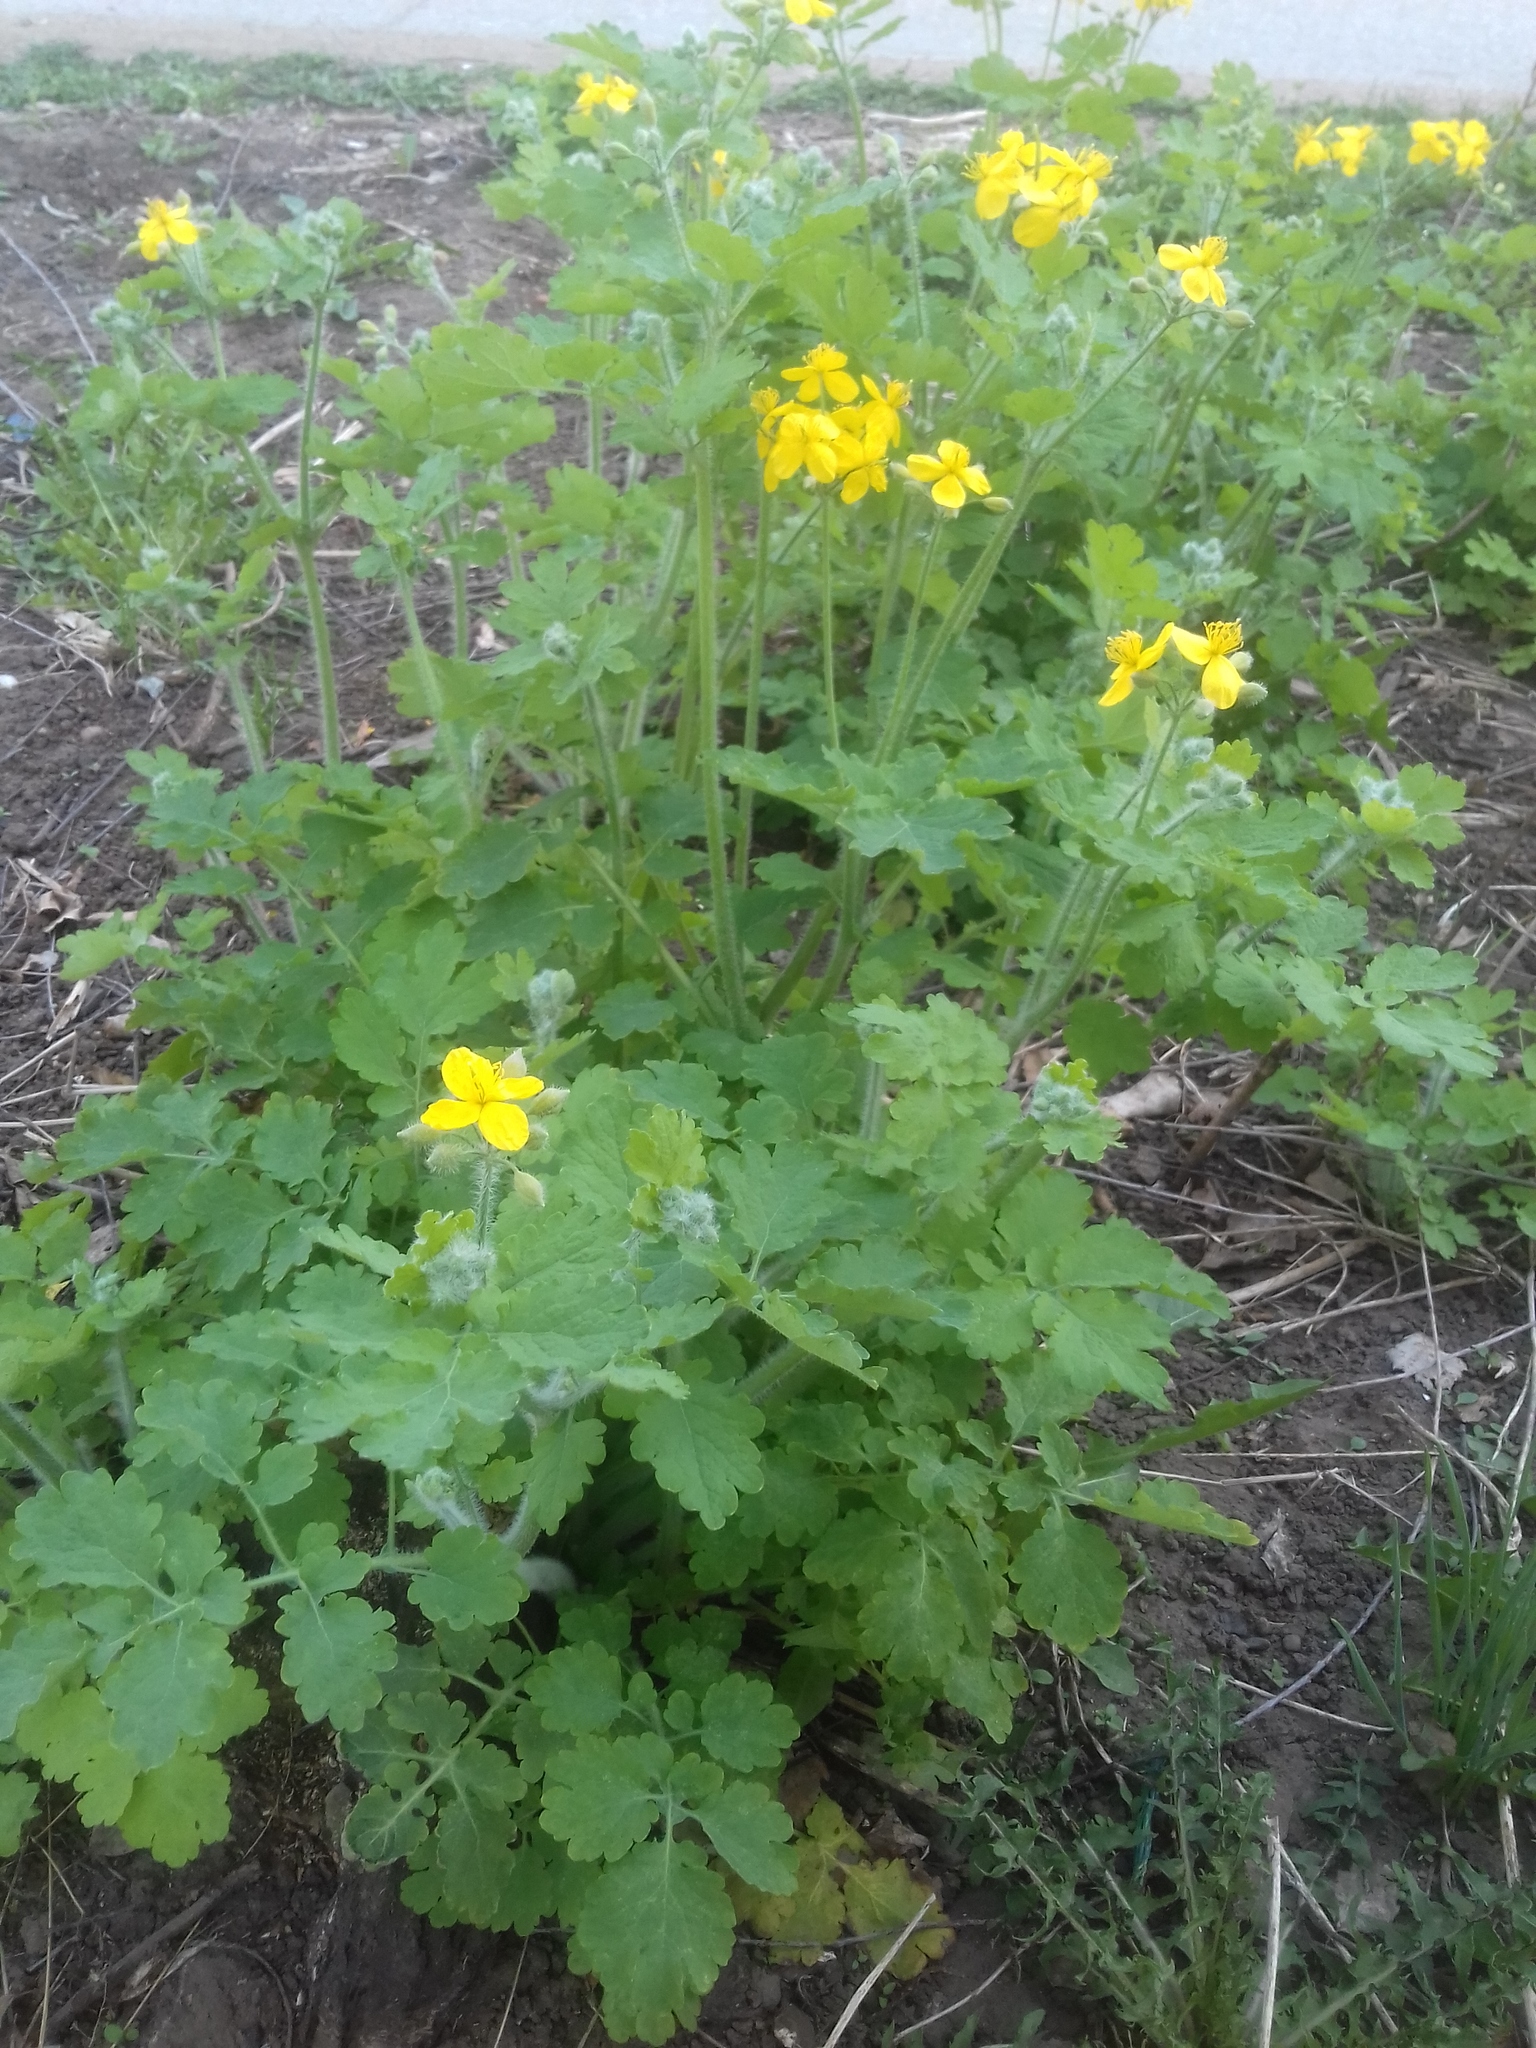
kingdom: Plantae
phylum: Tracheophyta
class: Magnoliopsida
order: Ranunculales
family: Papaveraceae
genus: Chelidonium
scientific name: Chelidonium majus
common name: Greater celandine
